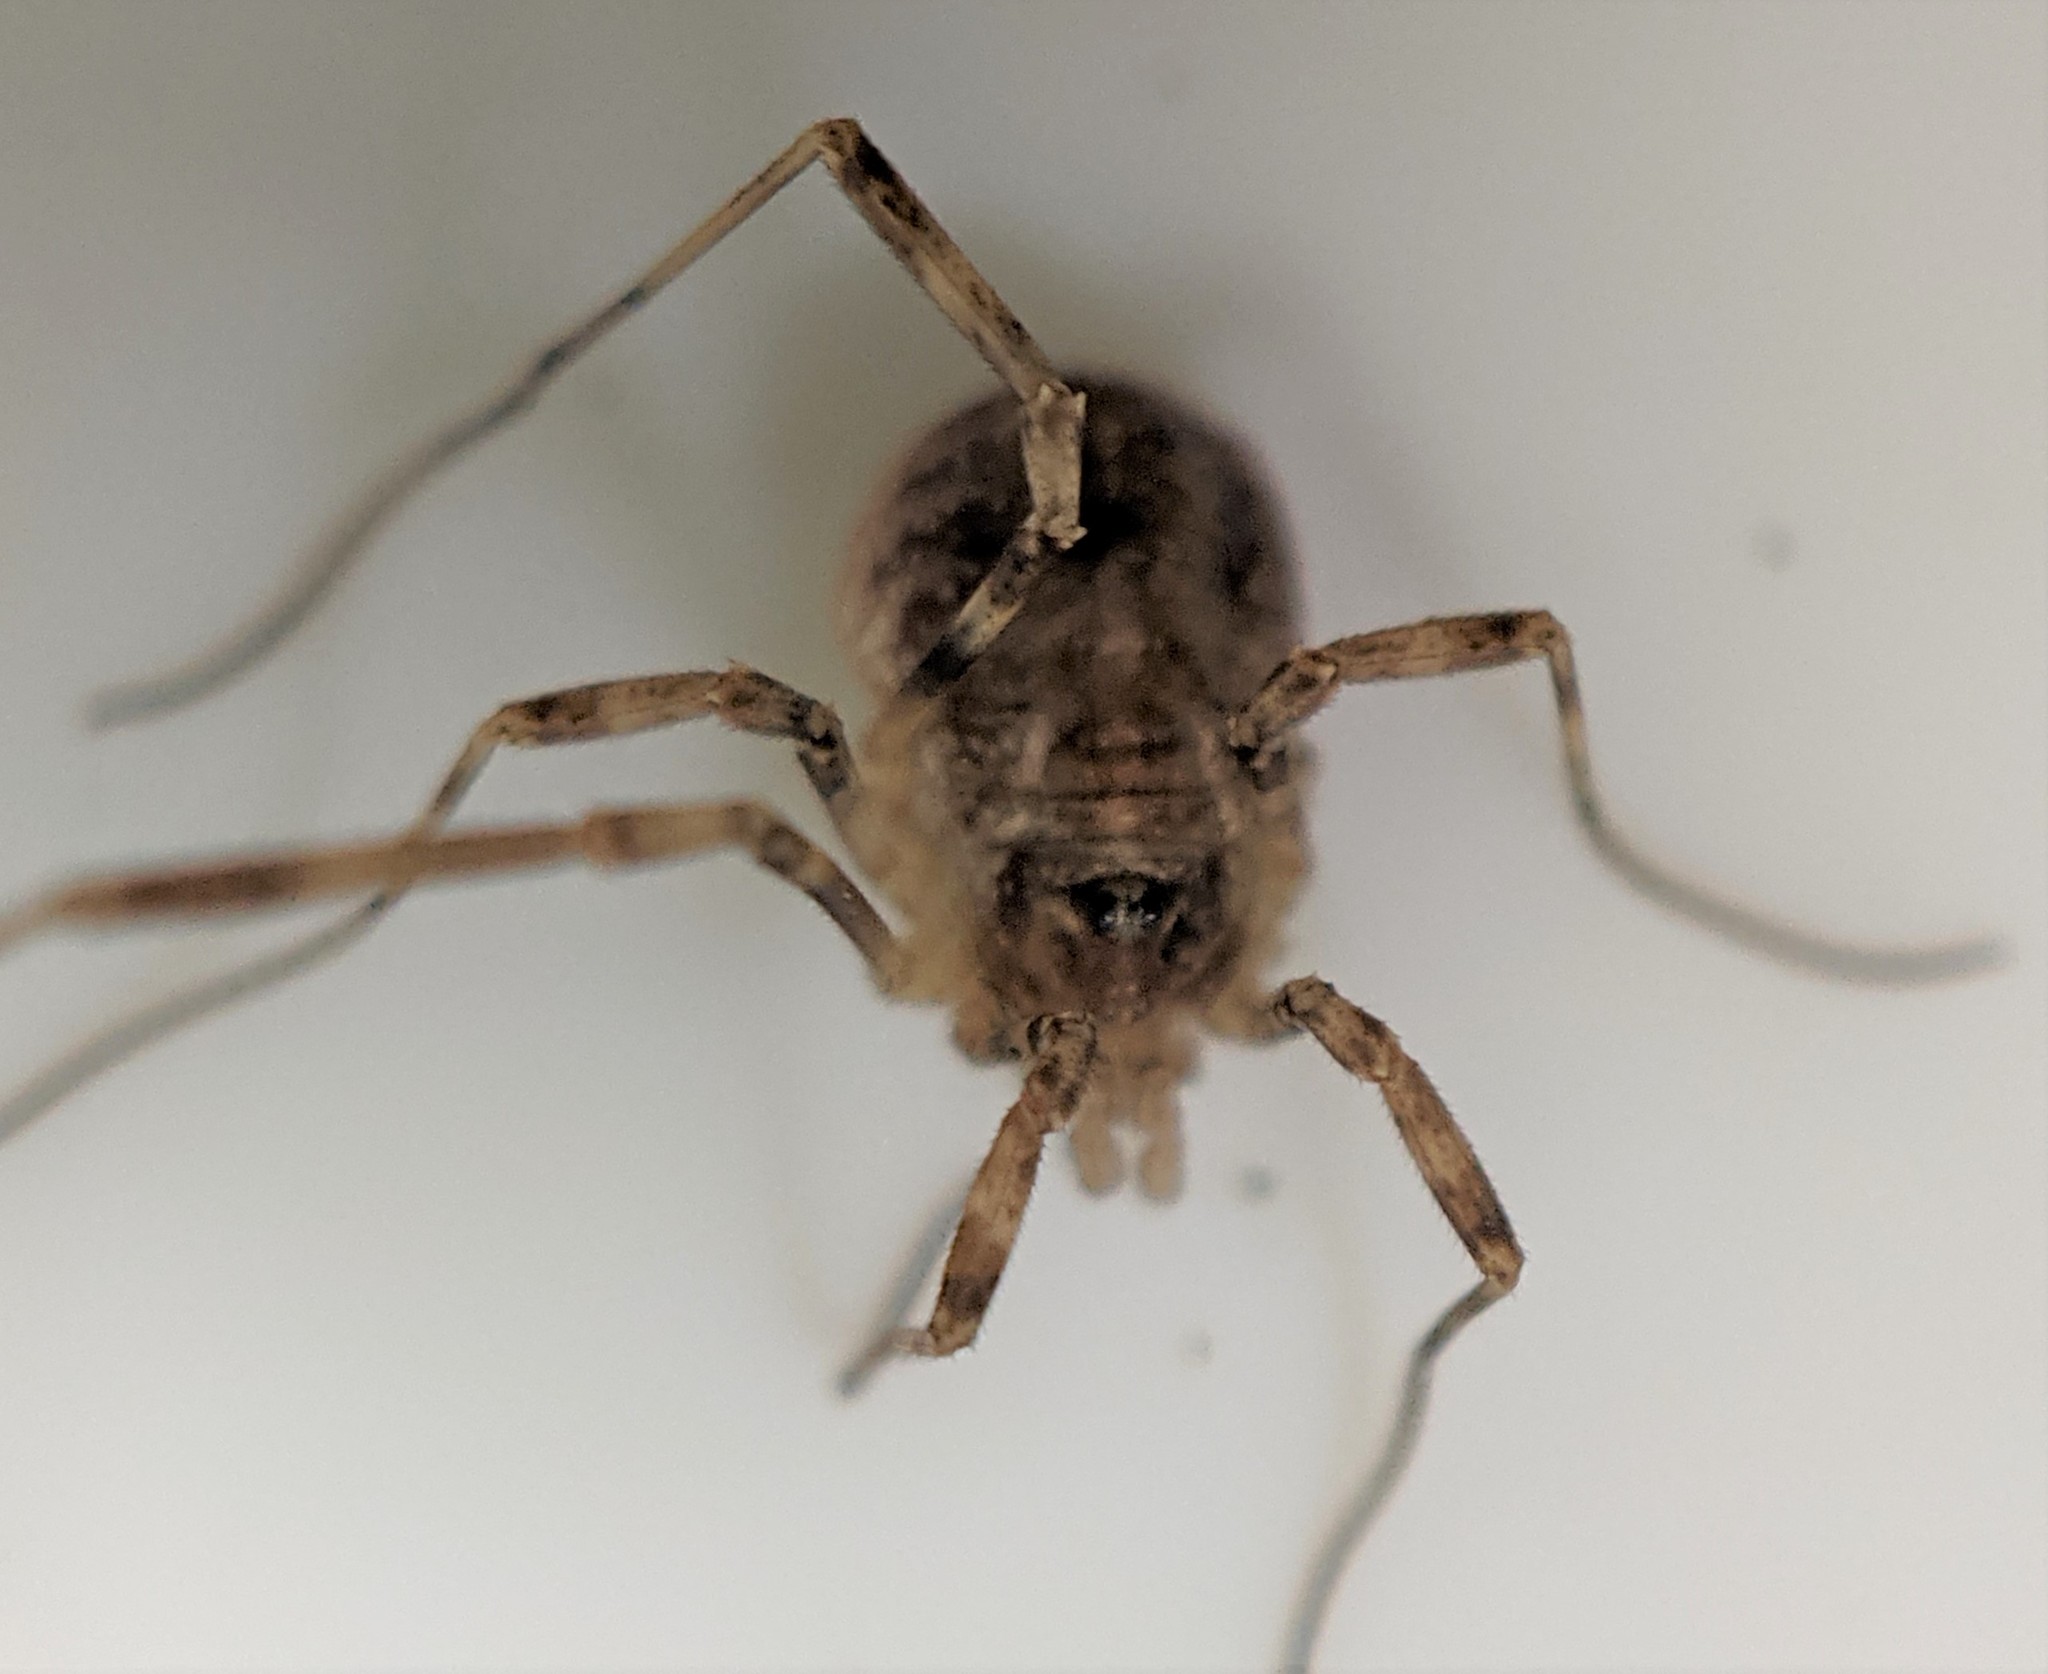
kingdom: Animalia
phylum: Arthropoda
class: Arachnida
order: Opiliones
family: Phalangiidae
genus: Paroligolophus
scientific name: Paroligolophus agrestis
